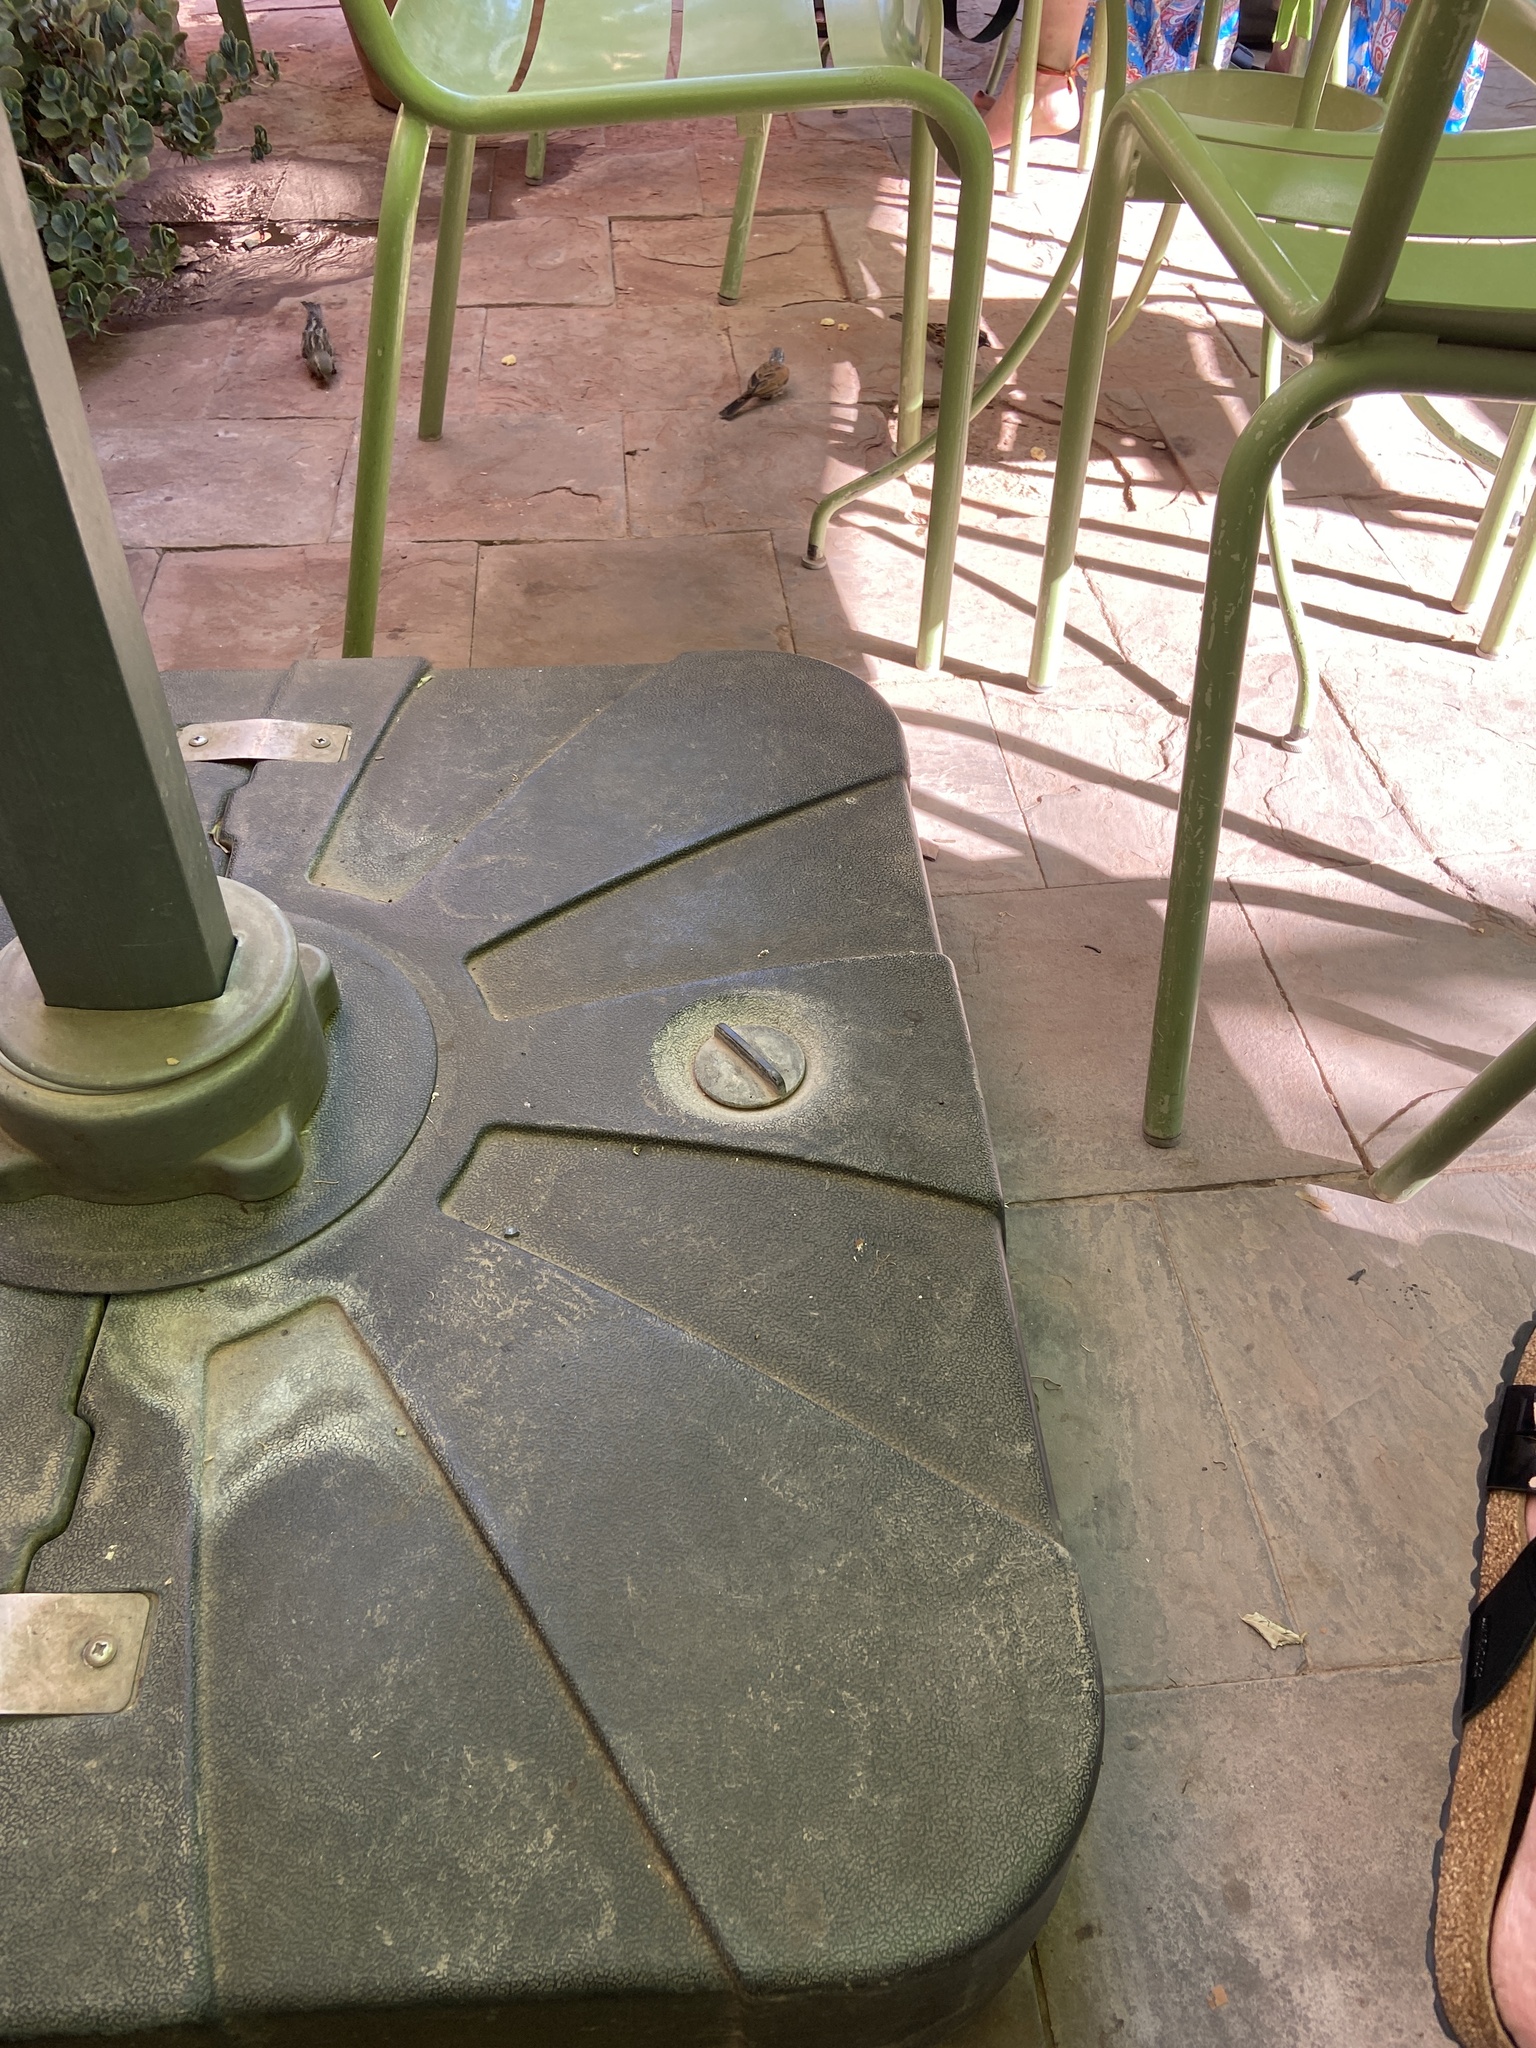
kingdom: Animalia
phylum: Chordata
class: Aves
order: Passeriformes
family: Emberizidae
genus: Emberiza
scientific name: Emberiza sahari
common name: House bunting
